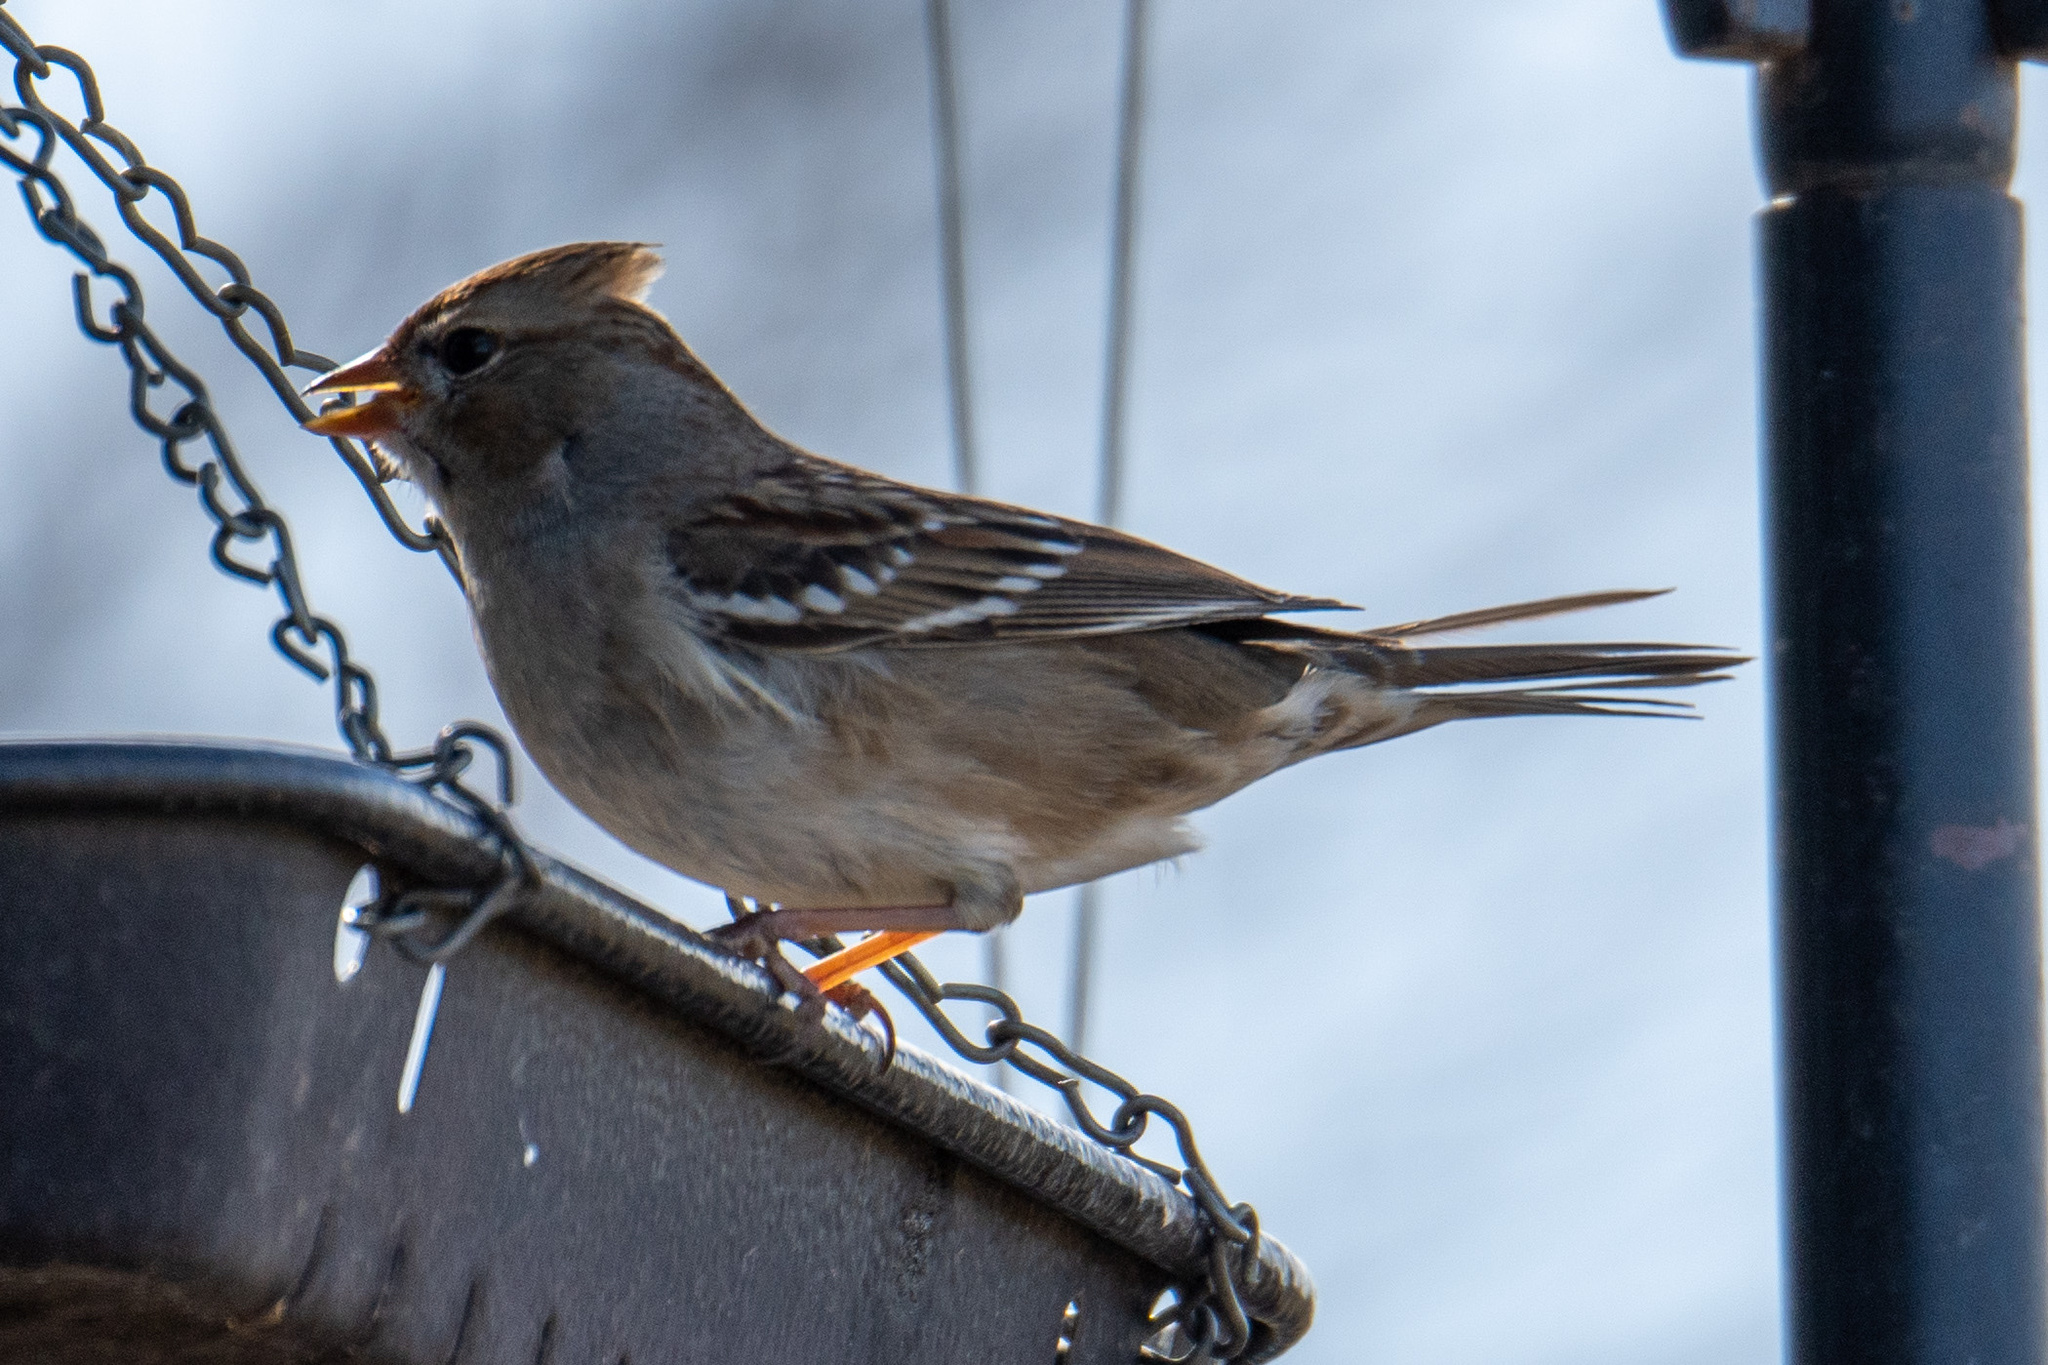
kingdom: Animalia
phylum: Chordata
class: Aves
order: Passeriformes
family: Passerellidae
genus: Zonotrichia
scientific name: Zonotrichia leucophrys
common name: White-crowned sparrow
